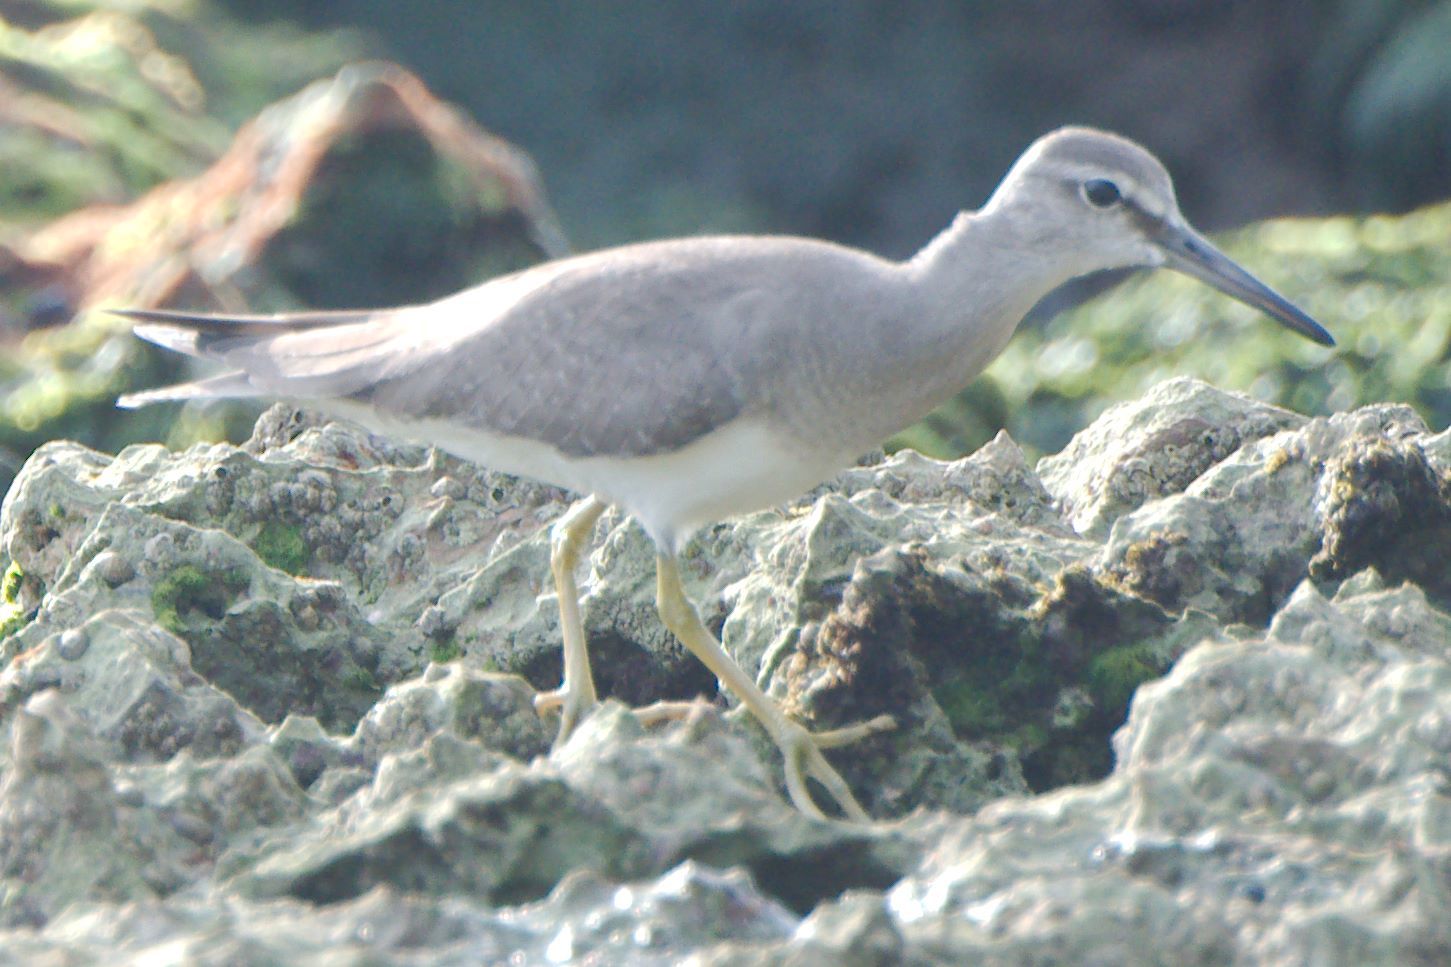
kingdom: Animalia
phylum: Chordata
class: Aves
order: Charadriiformes
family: Scolopacidae
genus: Tringa
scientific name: Tringa brevipes
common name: Grey-tailed tattler
